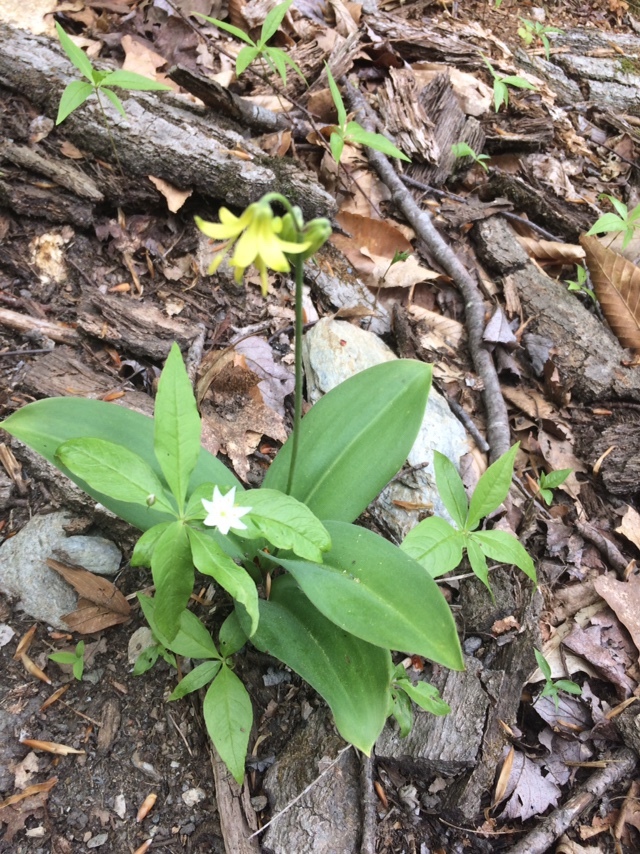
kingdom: Plantae
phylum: Tracheophyta
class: Liliopsida
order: Liliales
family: Liliaceae
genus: Clintonia
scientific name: Clintonia borealis
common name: Yellow clintonia
